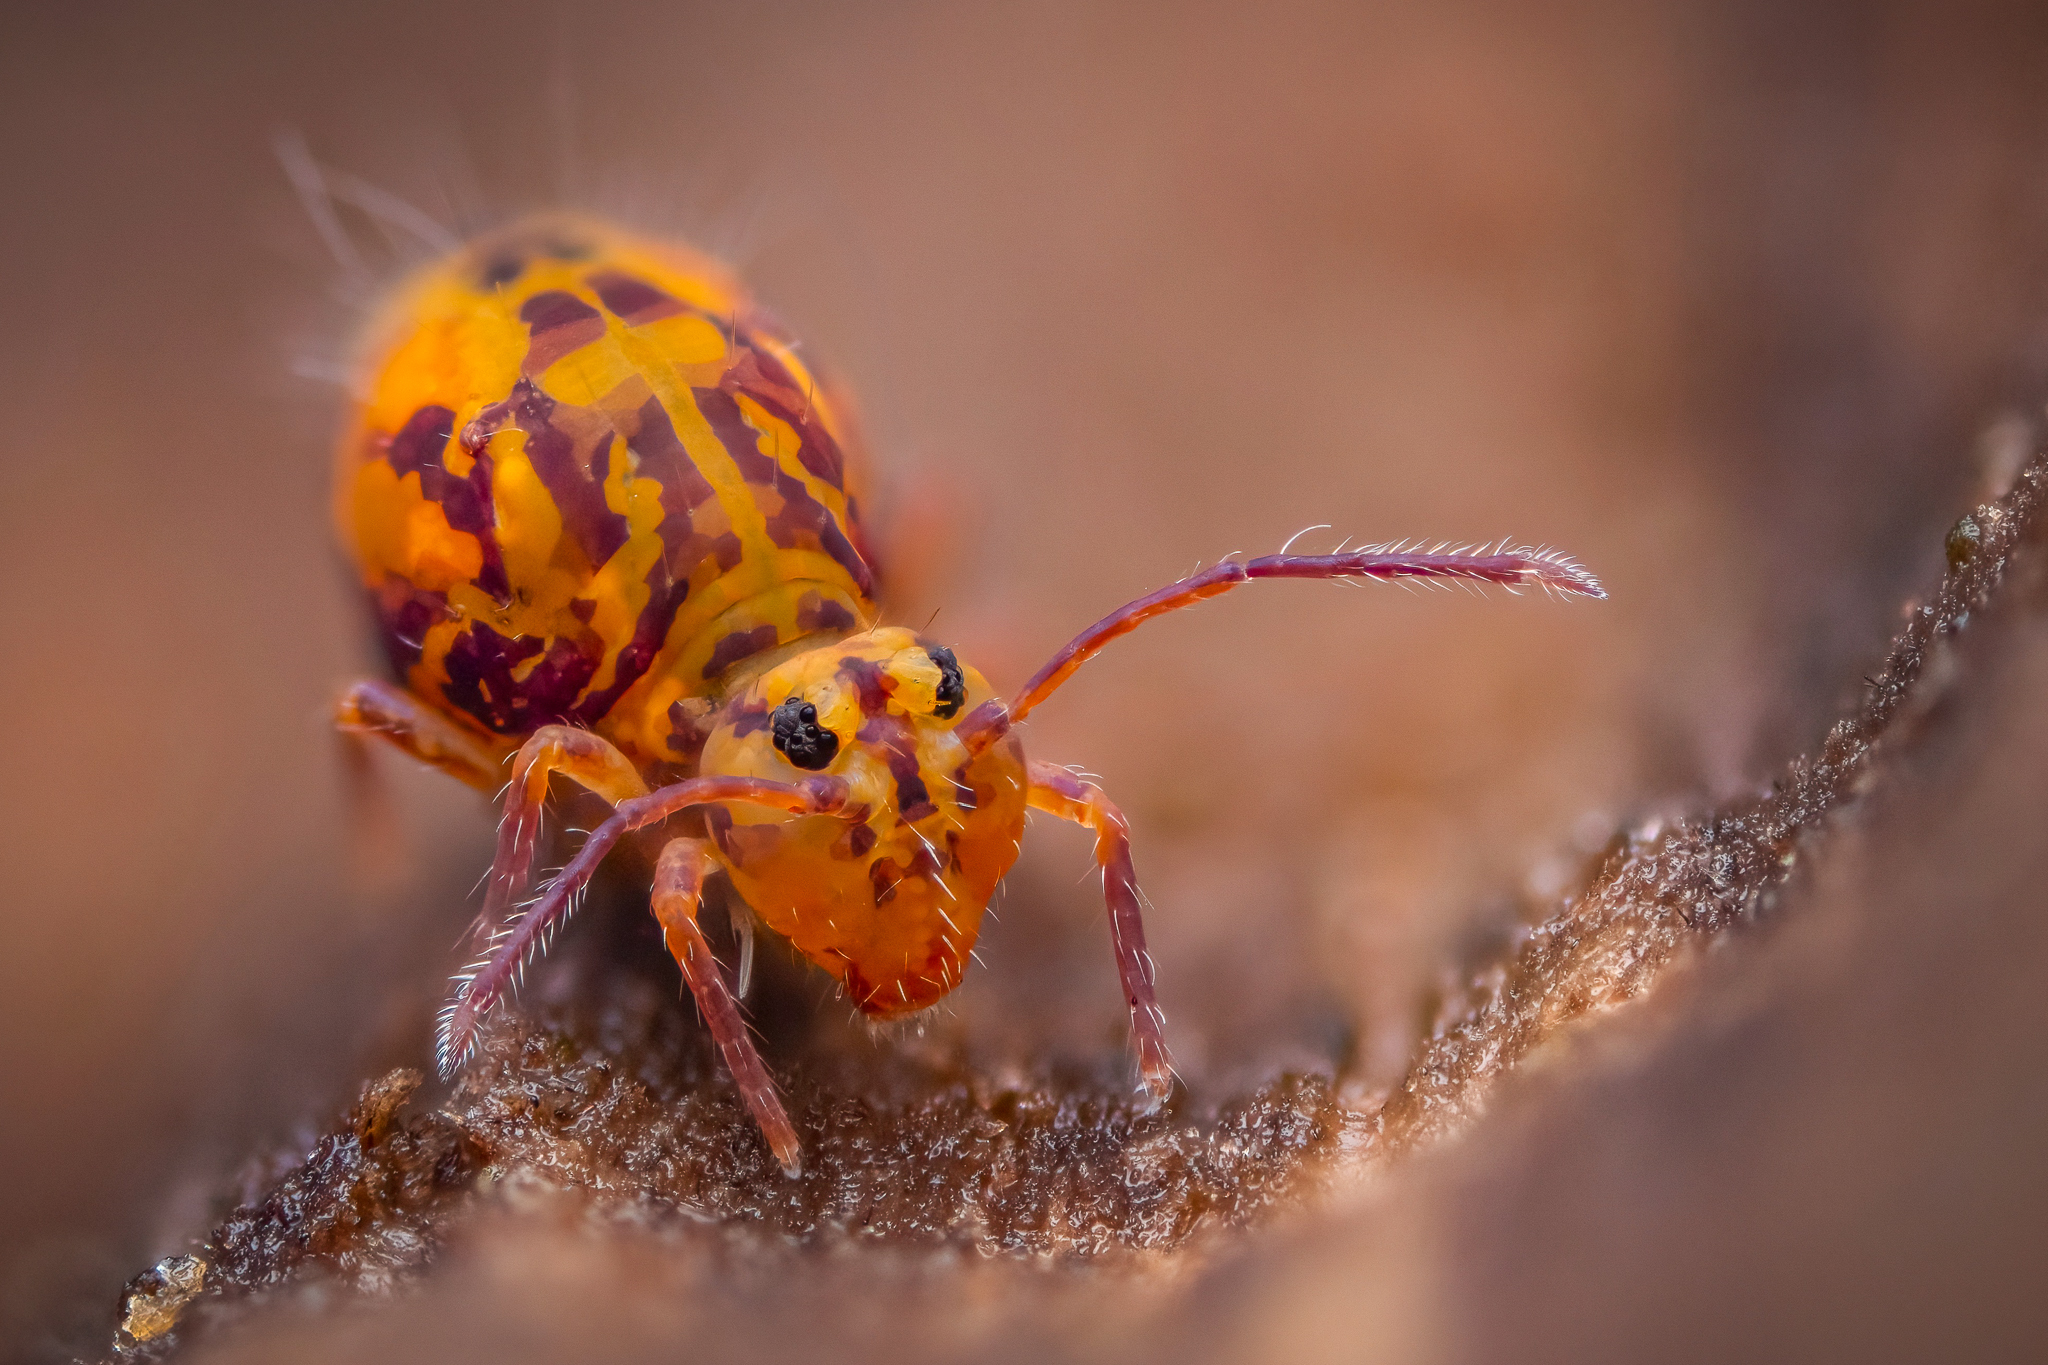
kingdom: Animalia
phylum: Arthropoda
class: Collembola
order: Symphypleona
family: Dicyrtomidae
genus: Dicyrtomina
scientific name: Dicyrtomina ornata
